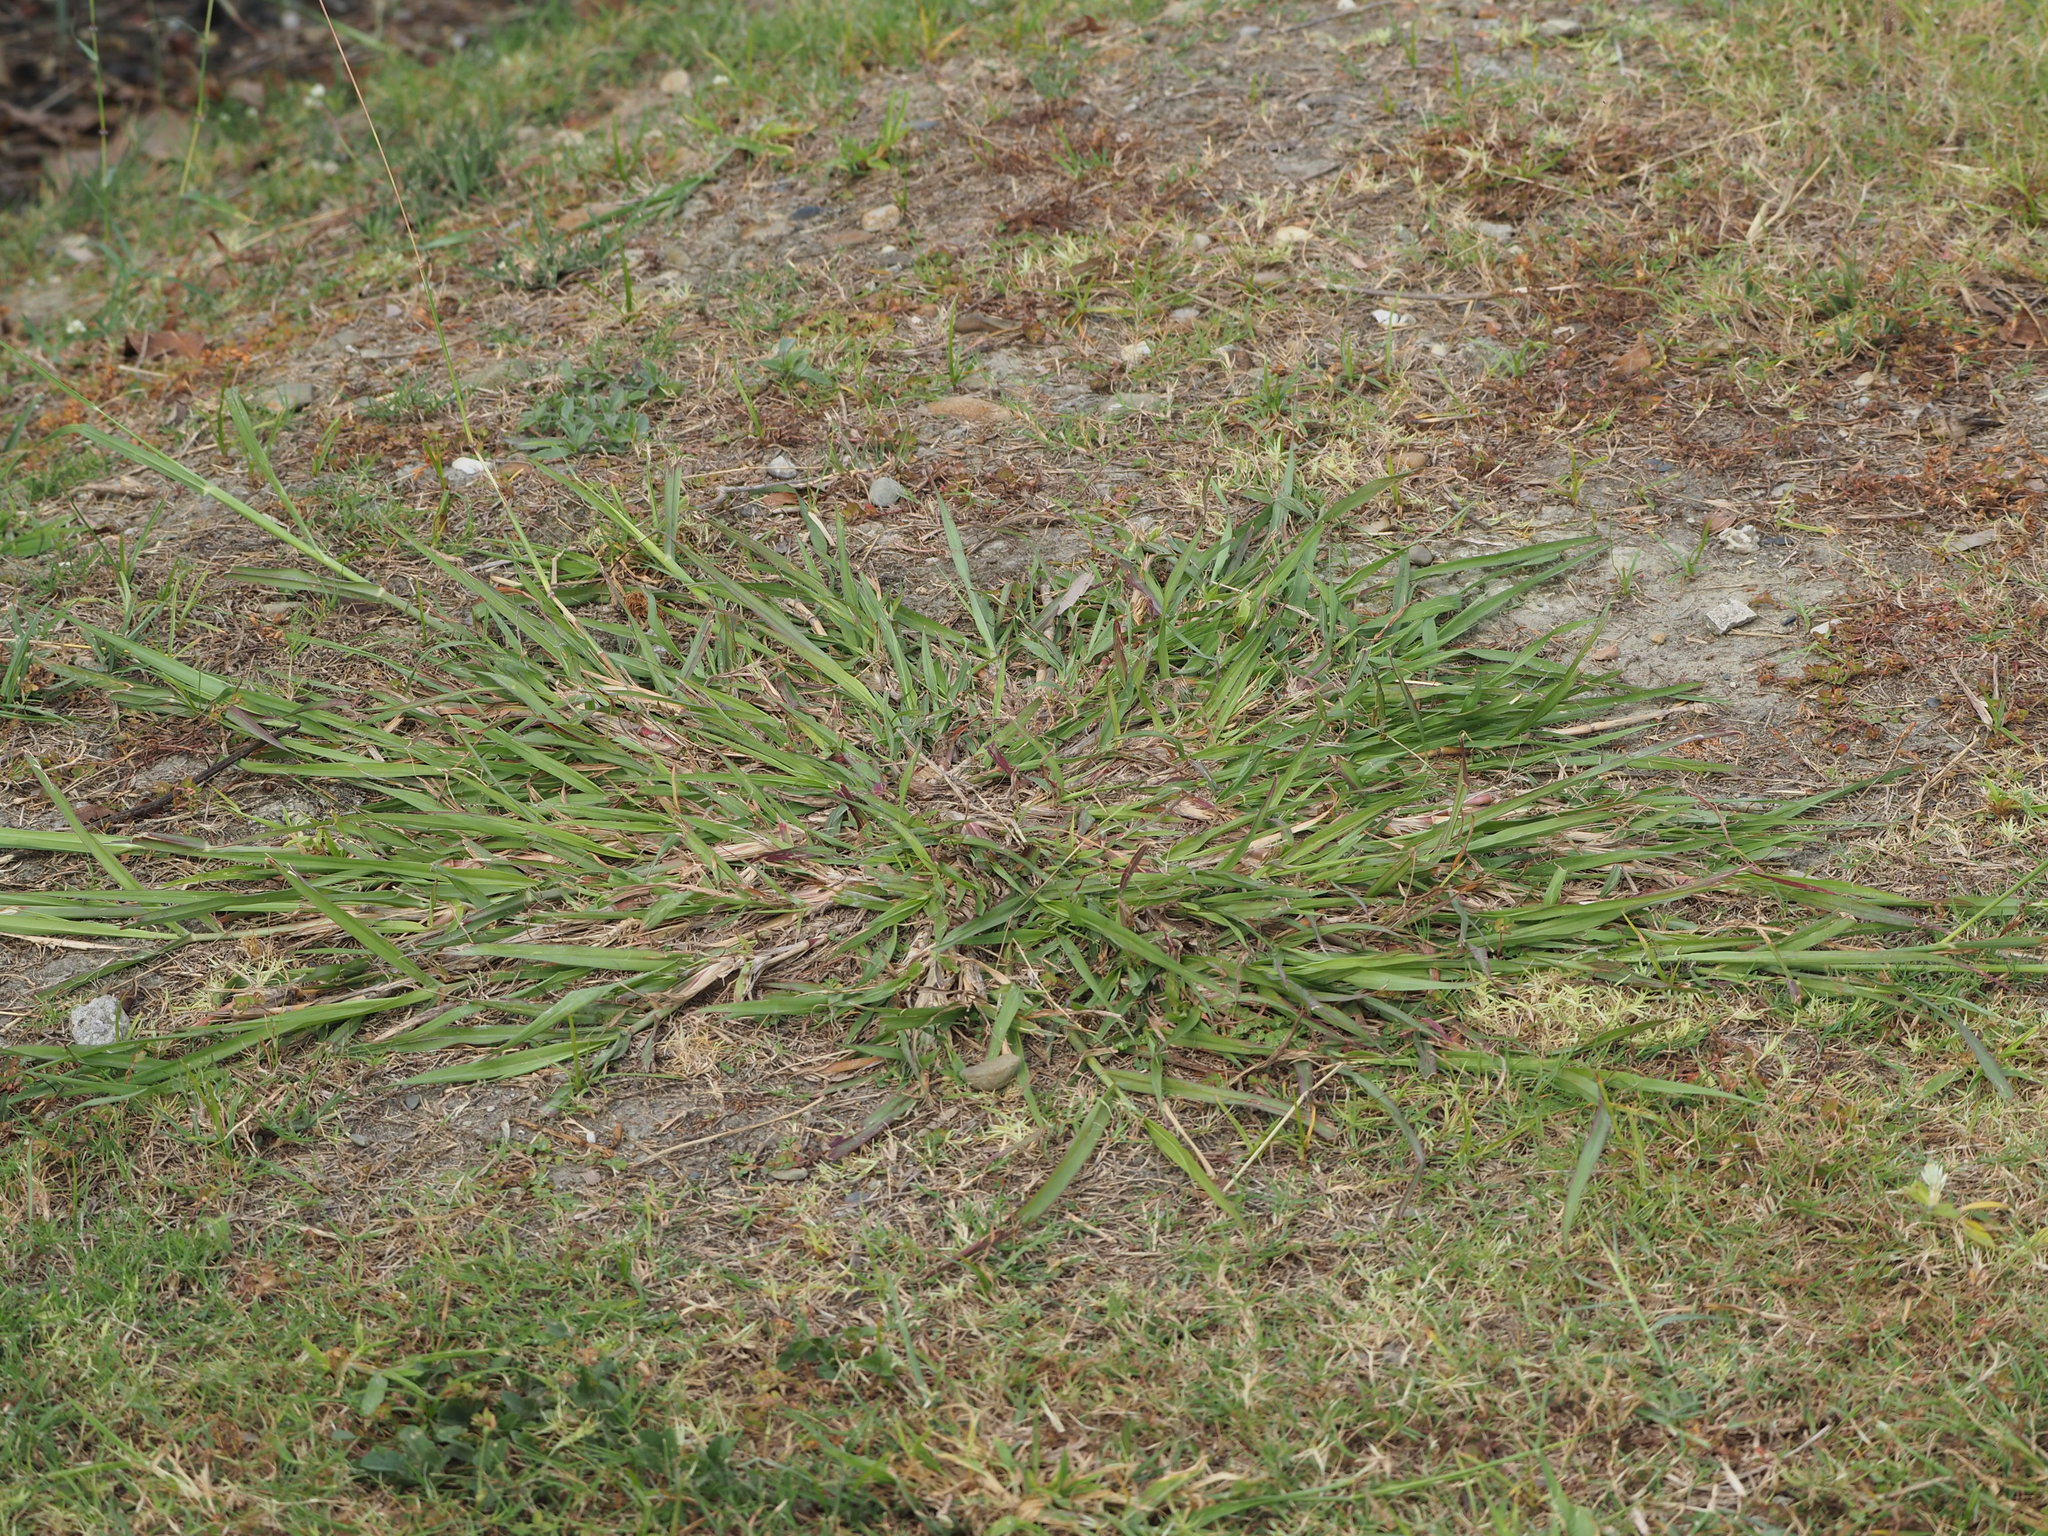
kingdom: Plantae
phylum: Tracheophyta
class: Liliopsida
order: Poales
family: Poaceae
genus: Bothriochloa
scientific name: Bothriochloa bladhii
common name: Caucasian bluestem
